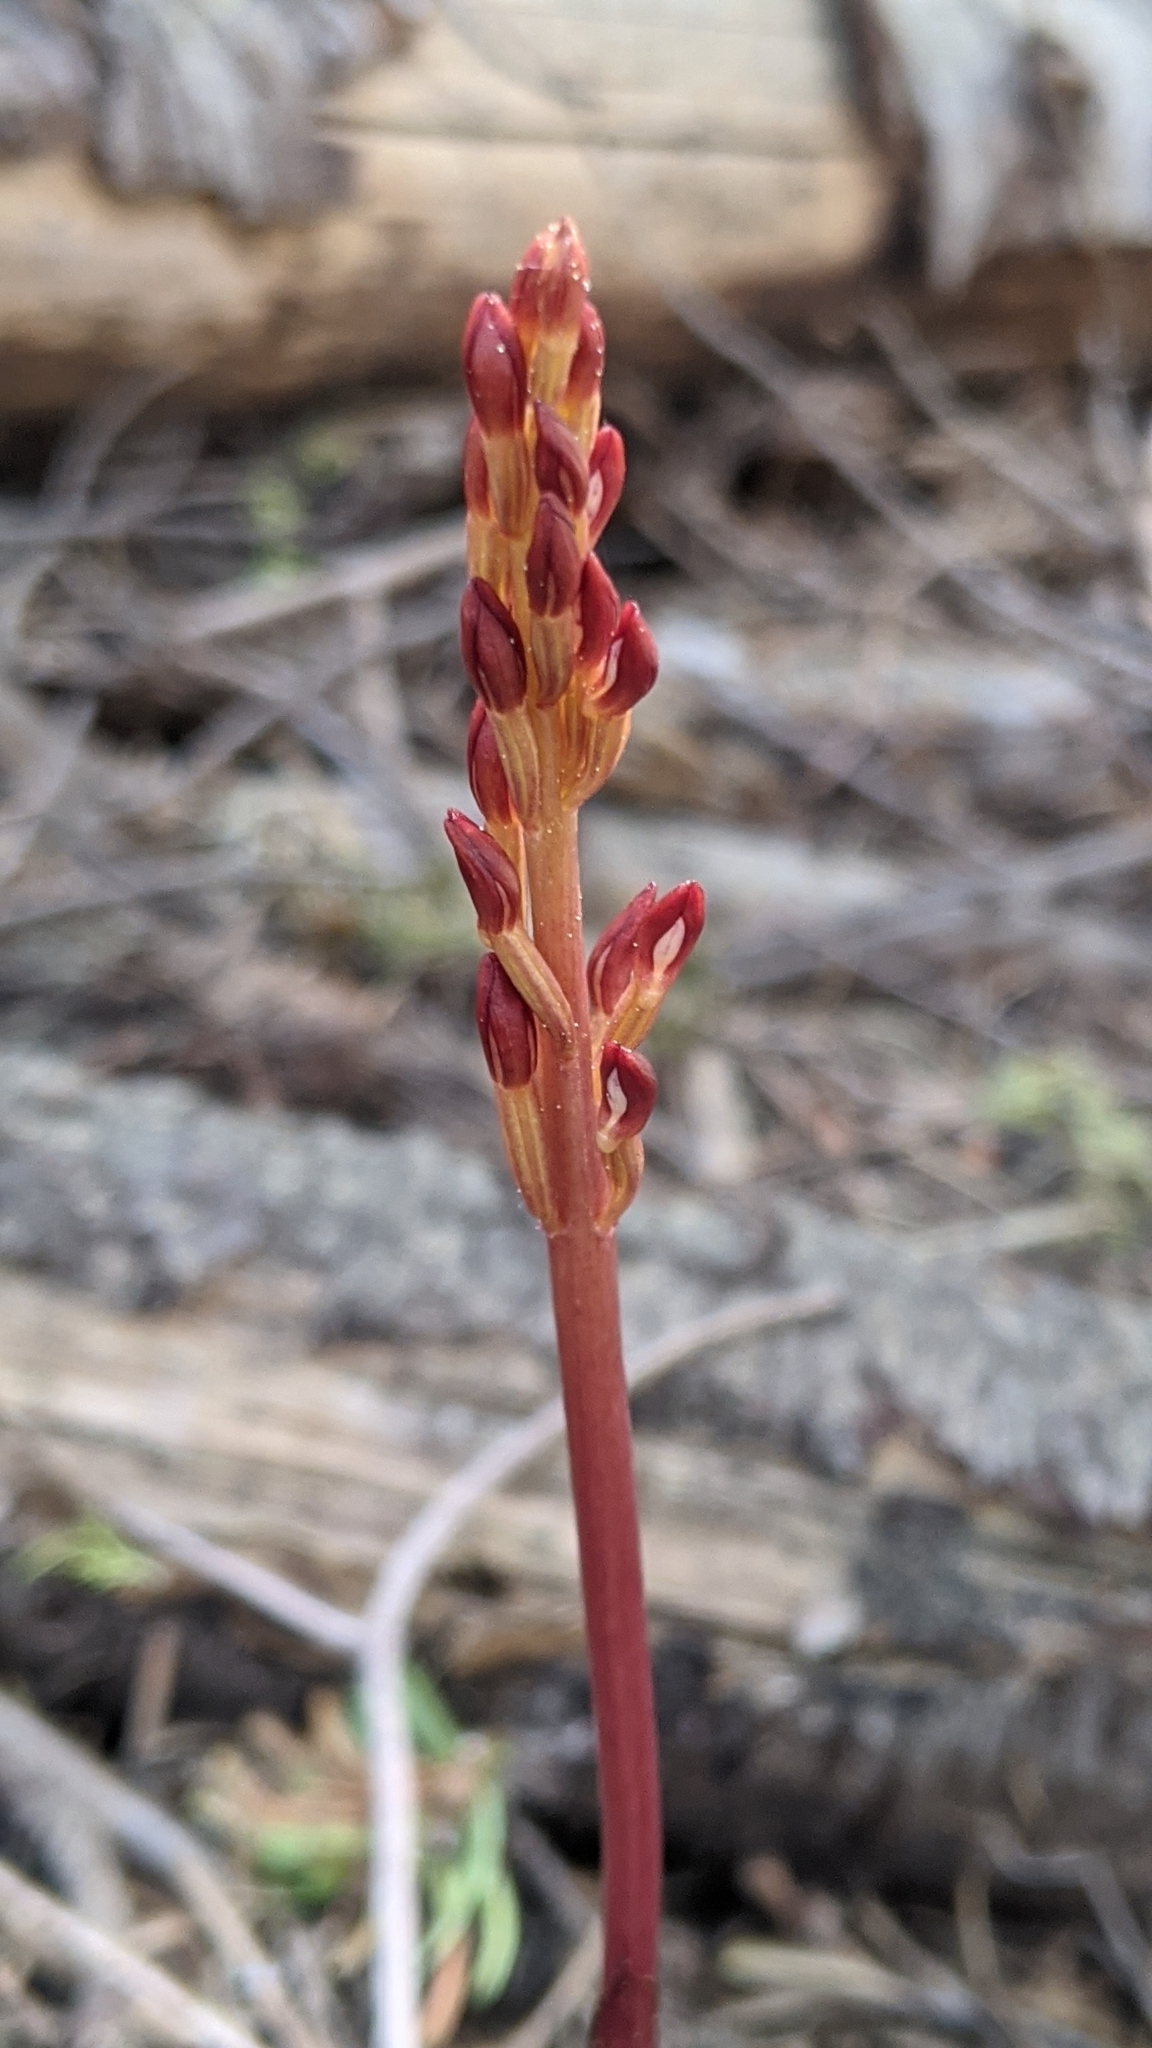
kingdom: Plantae
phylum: Tracheophyta
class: Liliopsida
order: Asparagales
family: Orchidaceae
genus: Corallorhiza
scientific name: Corallorhiza maculata
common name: Spotted coralroot
